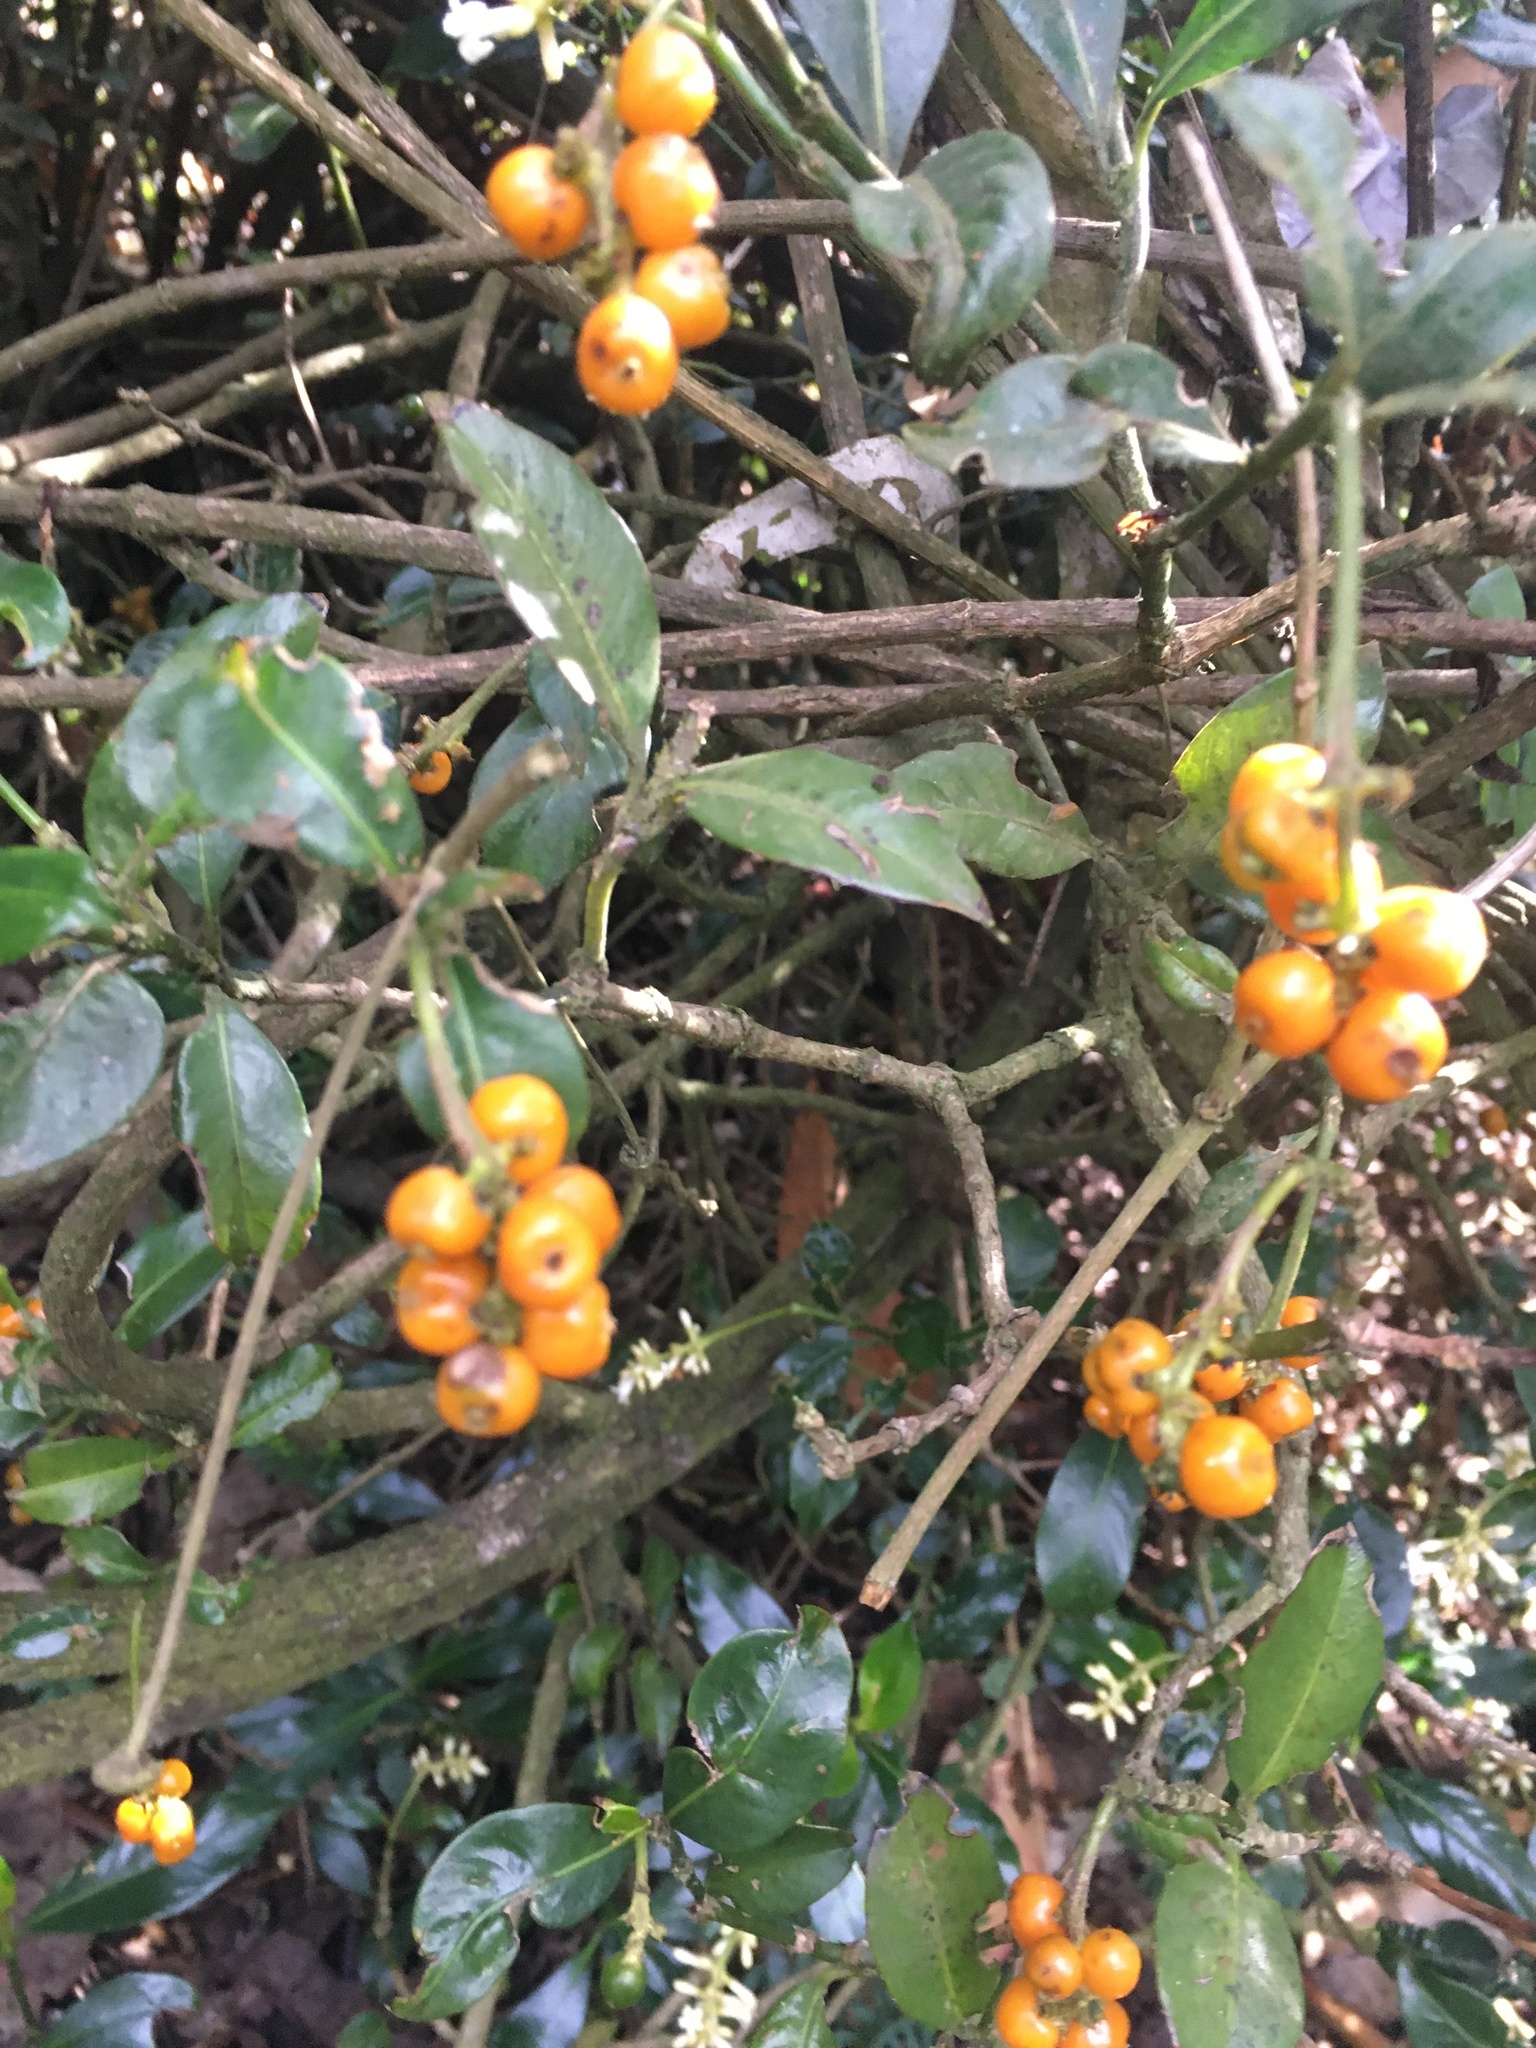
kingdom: Plantae
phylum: Tracheophyta
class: Magnoliopsida
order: Gentianales
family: Rubiaceae
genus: Palicourea
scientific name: Palicourea boqueronensis
